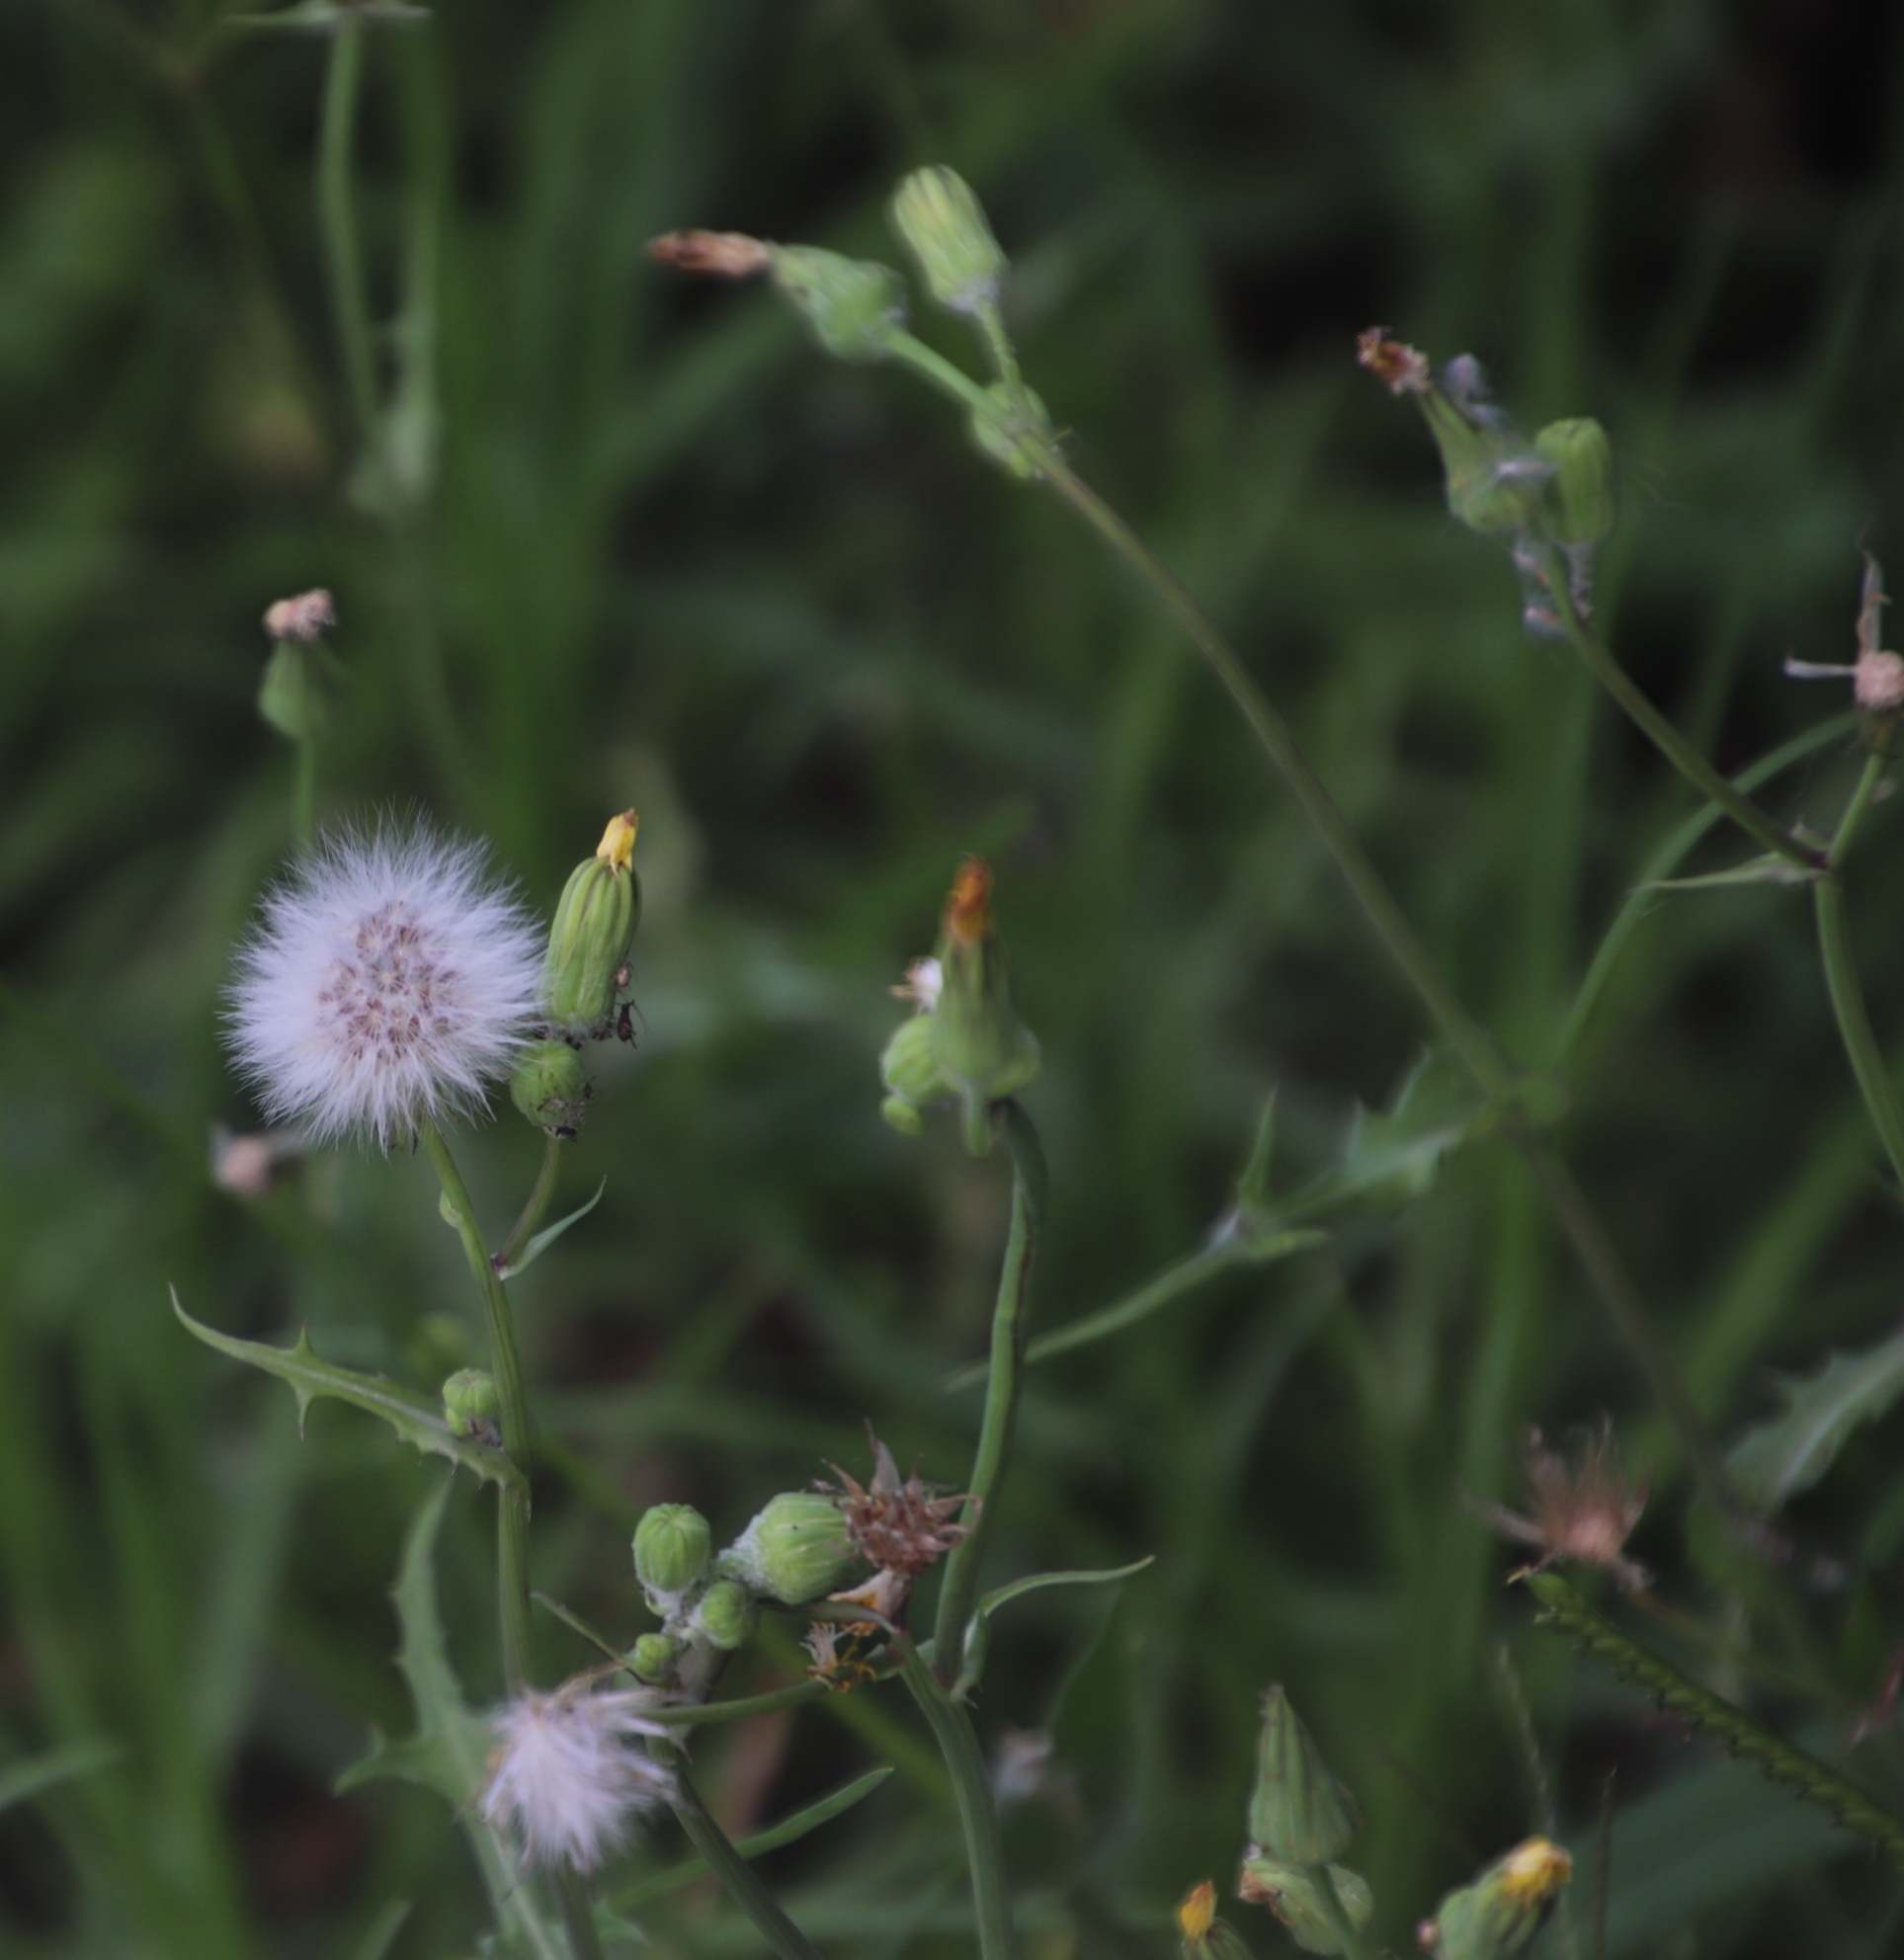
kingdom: Plantae
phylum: Tracheophyta
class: Magnoliopsida
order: Asterales
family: Asteraceae
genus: Sonchus
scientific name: Sonchus oleraceus
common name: Common sowthistle
